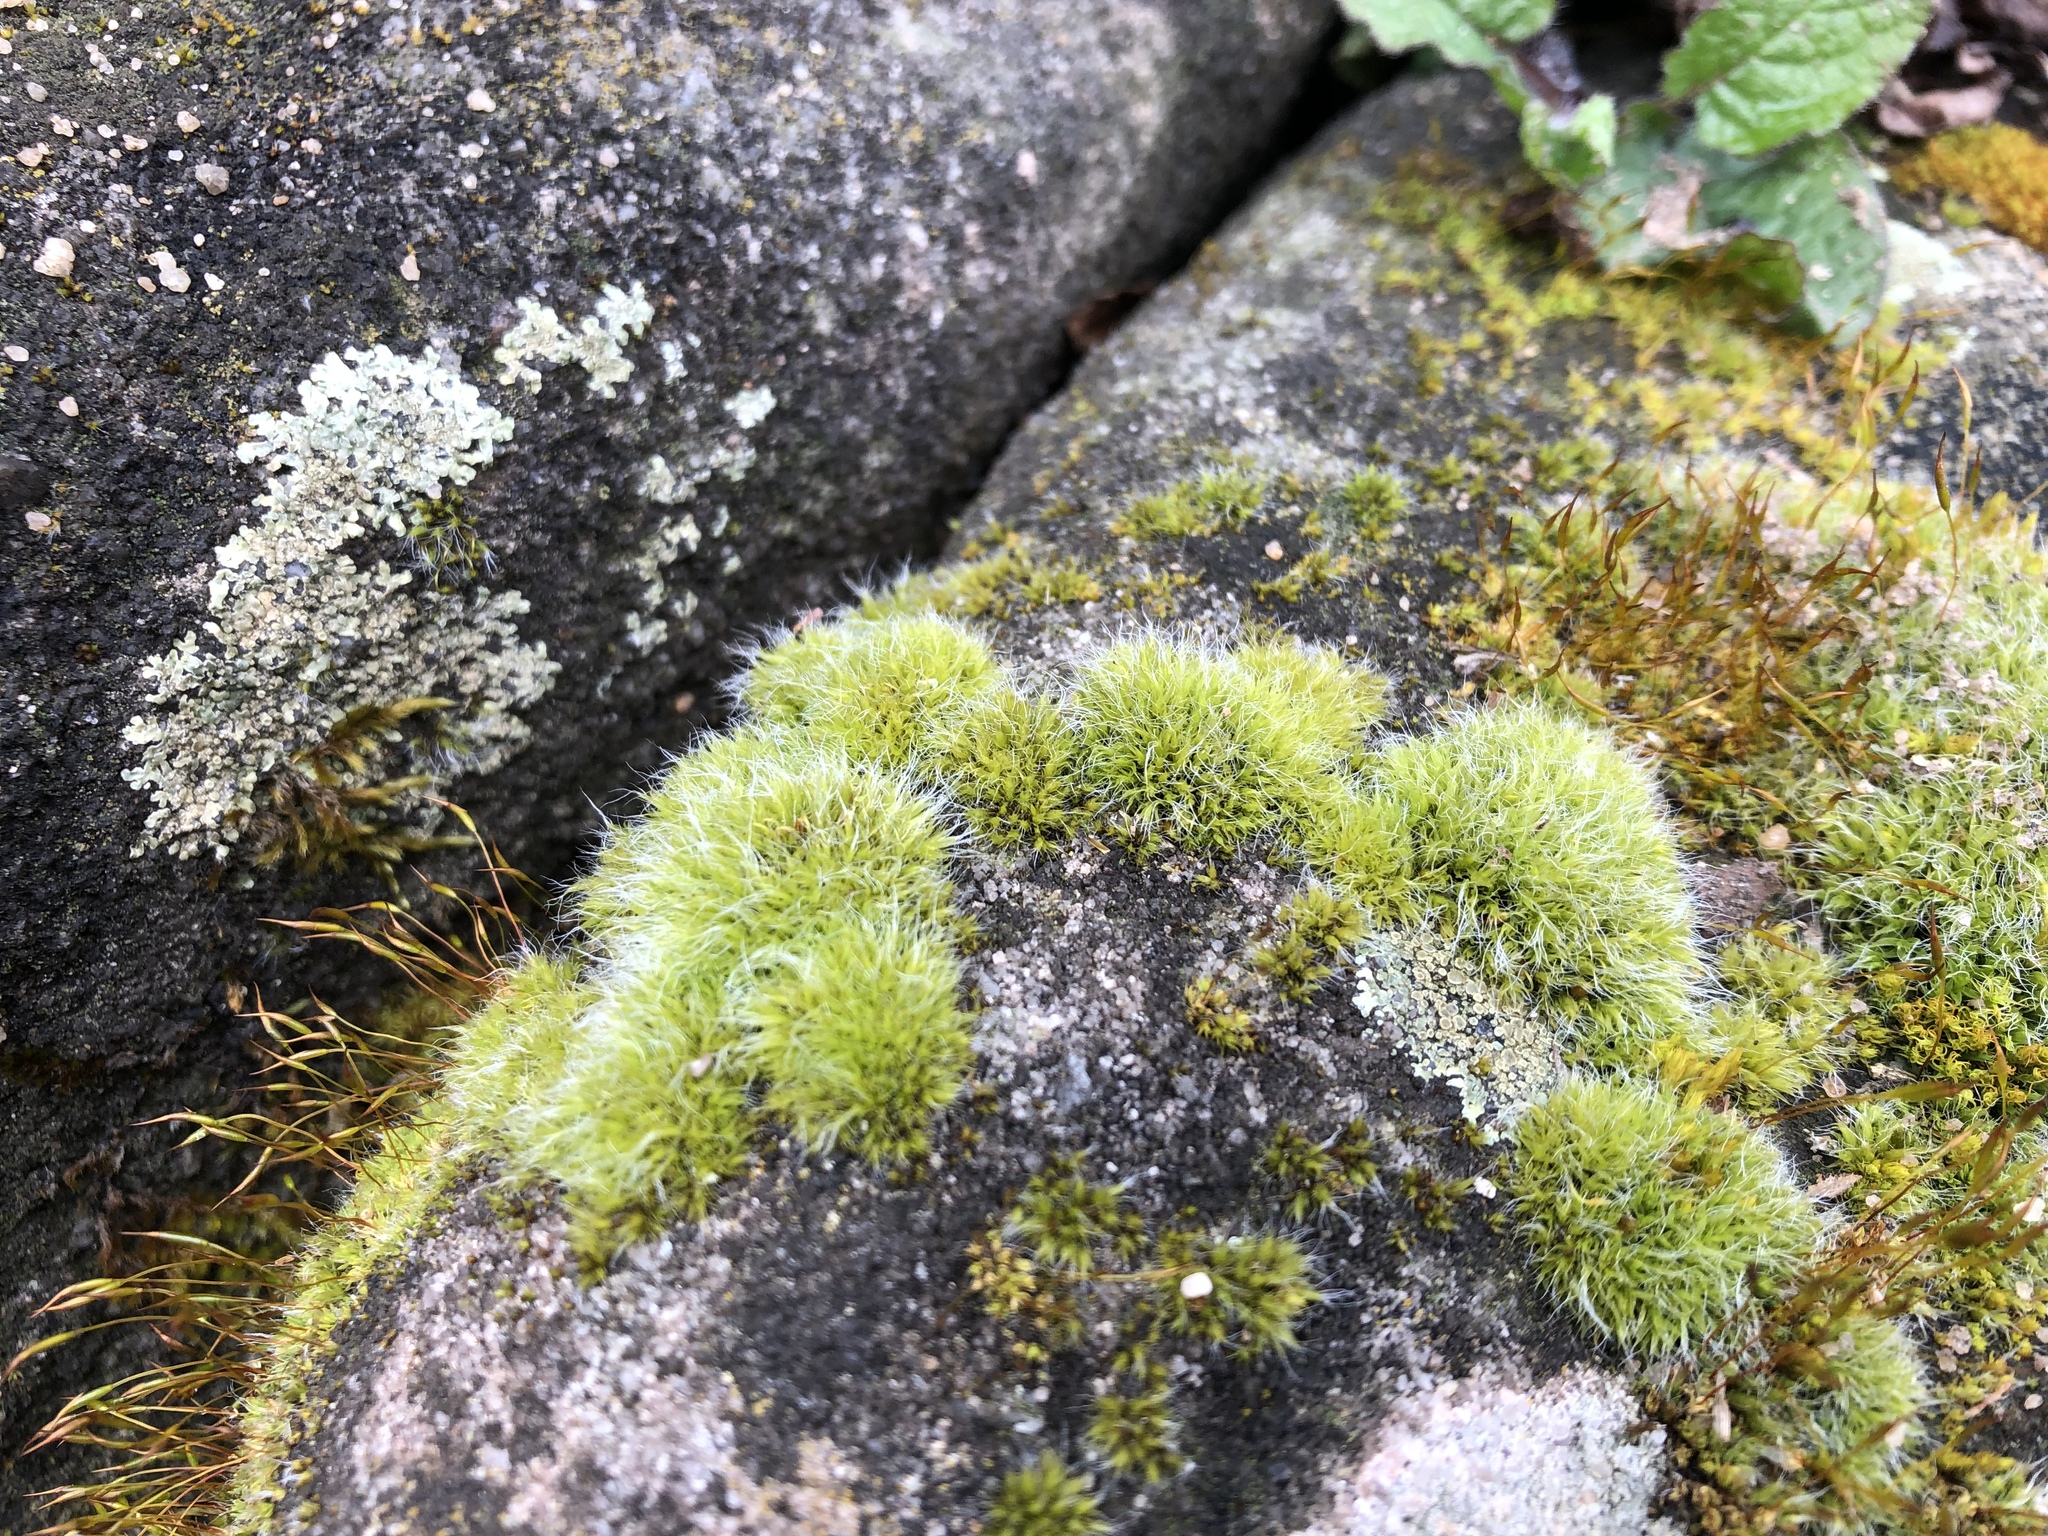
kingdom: Plantae
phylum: Bryophyta
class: Bryopsida
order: Grimmiales
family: Grimmiaceae
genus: Grimmia
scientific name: Grimmia pulvinata
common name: Grey-cushioned grimmia
